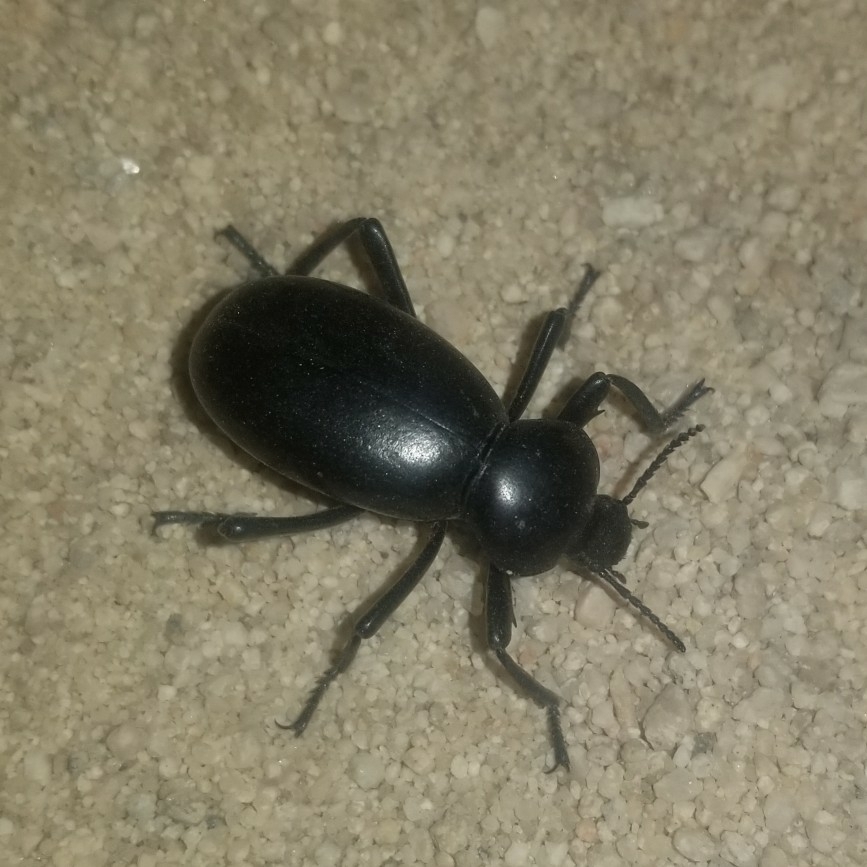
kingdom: Animalia
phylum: Arthropoda
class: Insecta
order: Coleoptera
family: Tenebrionidae
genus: Eleodes
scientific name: Eleodes grandicollis
